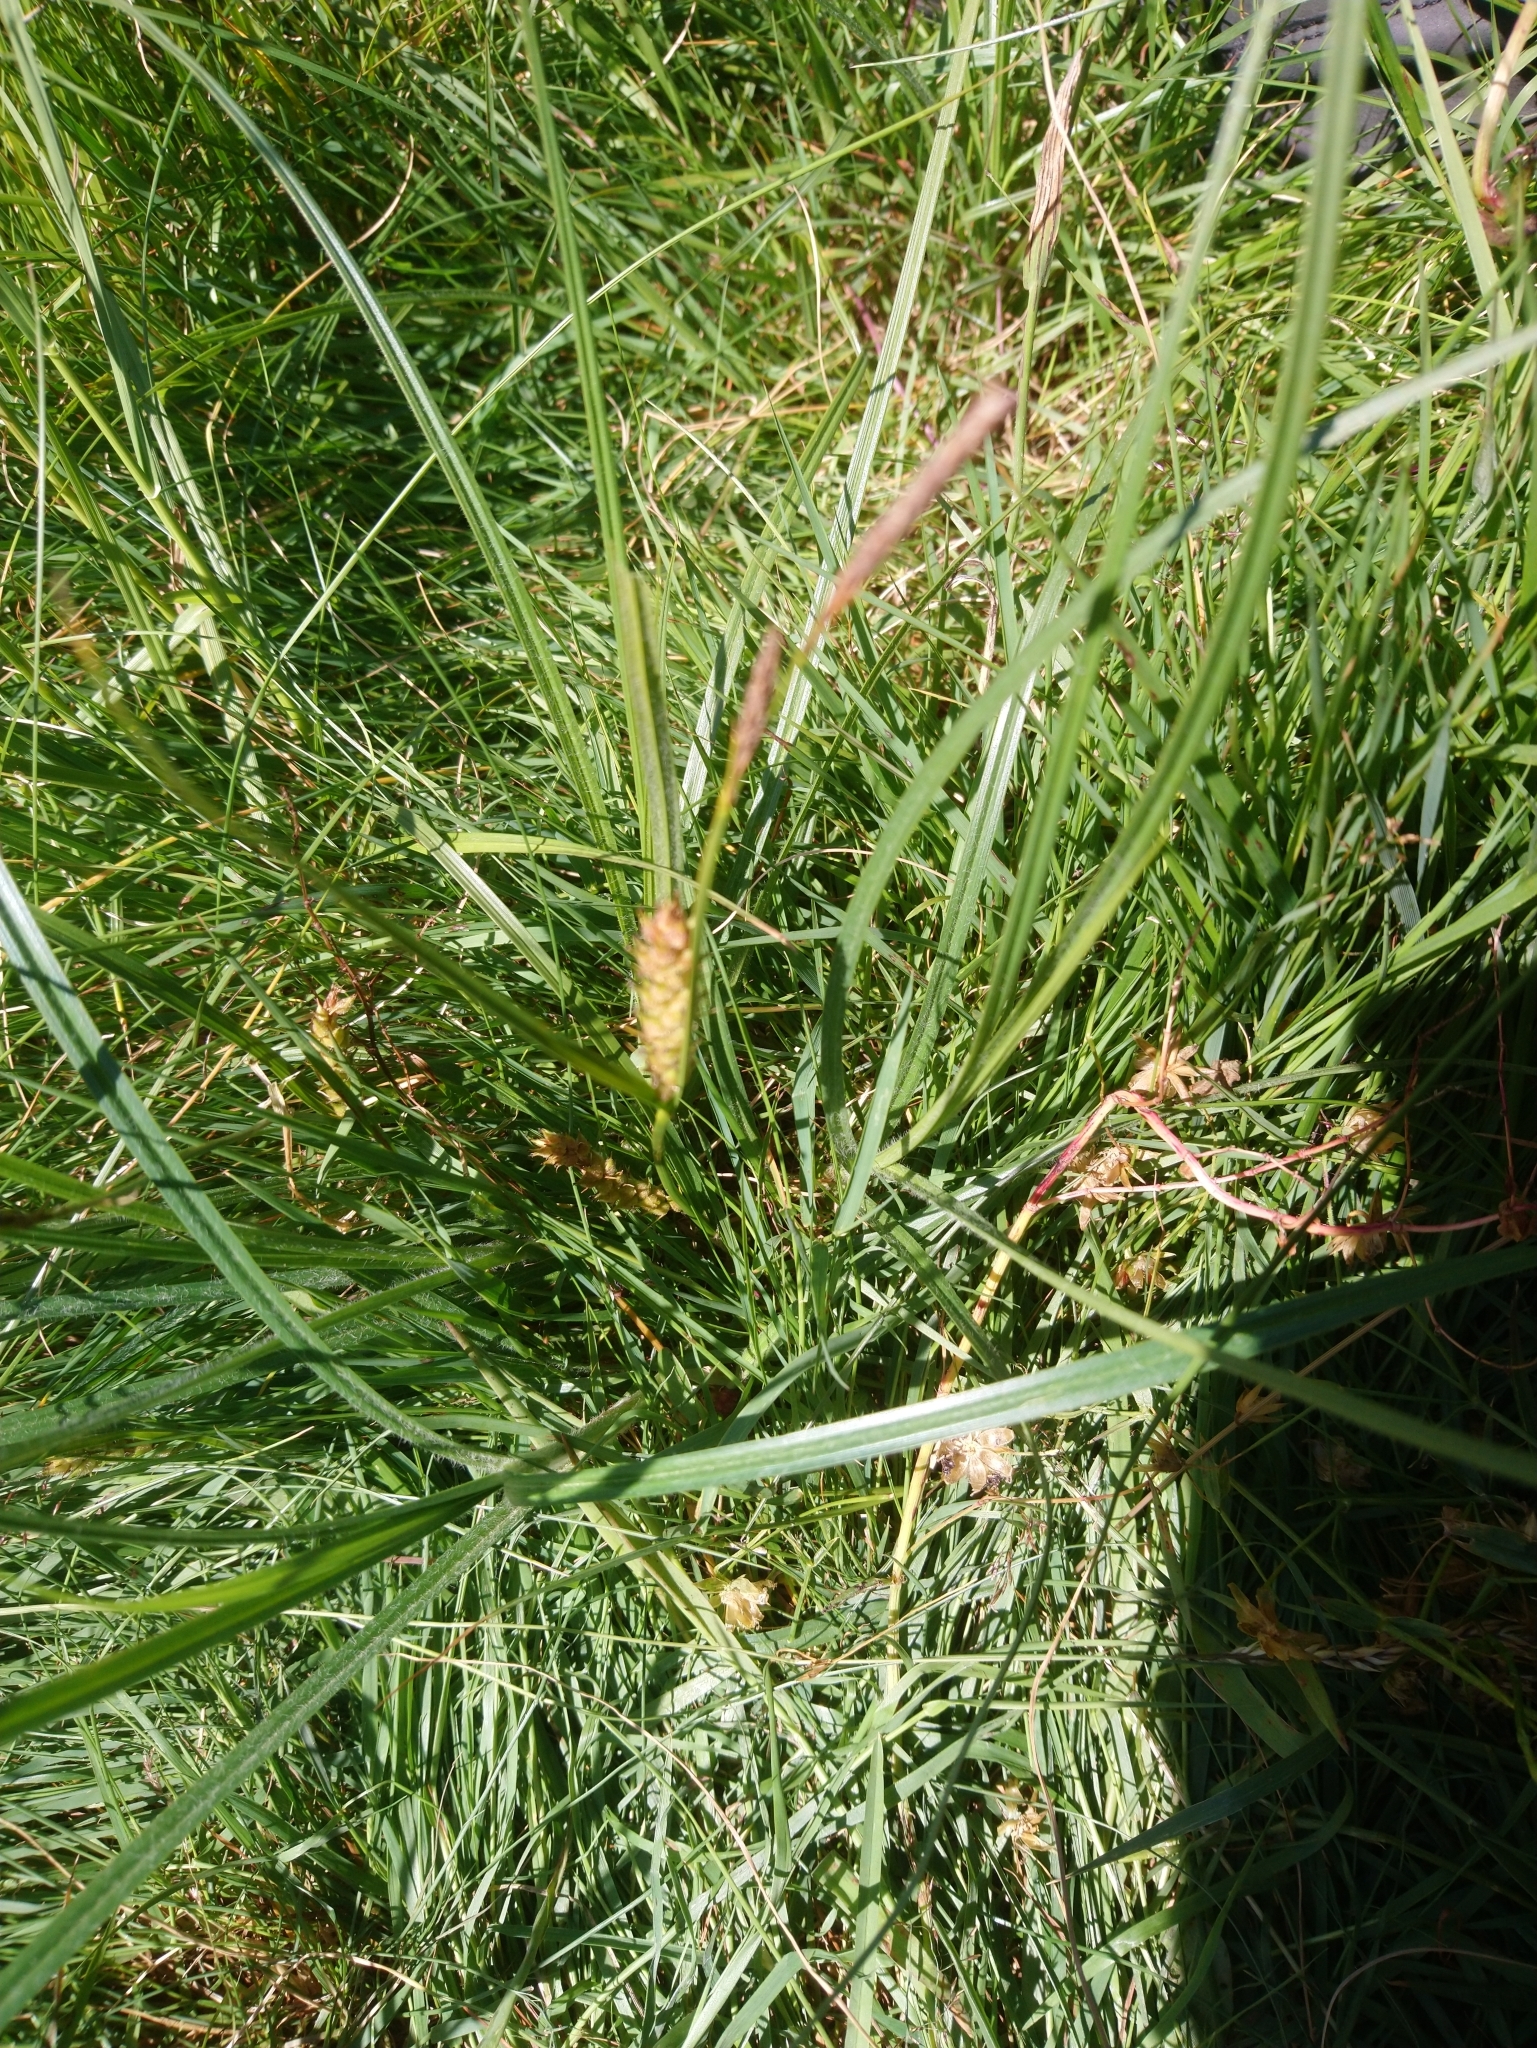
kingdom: Plantae
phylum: Tracheophyta
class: Liliopsida
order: Poales
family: Cyperaceae
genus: Carex
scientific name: Carex hirta
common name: Hairy sedge
